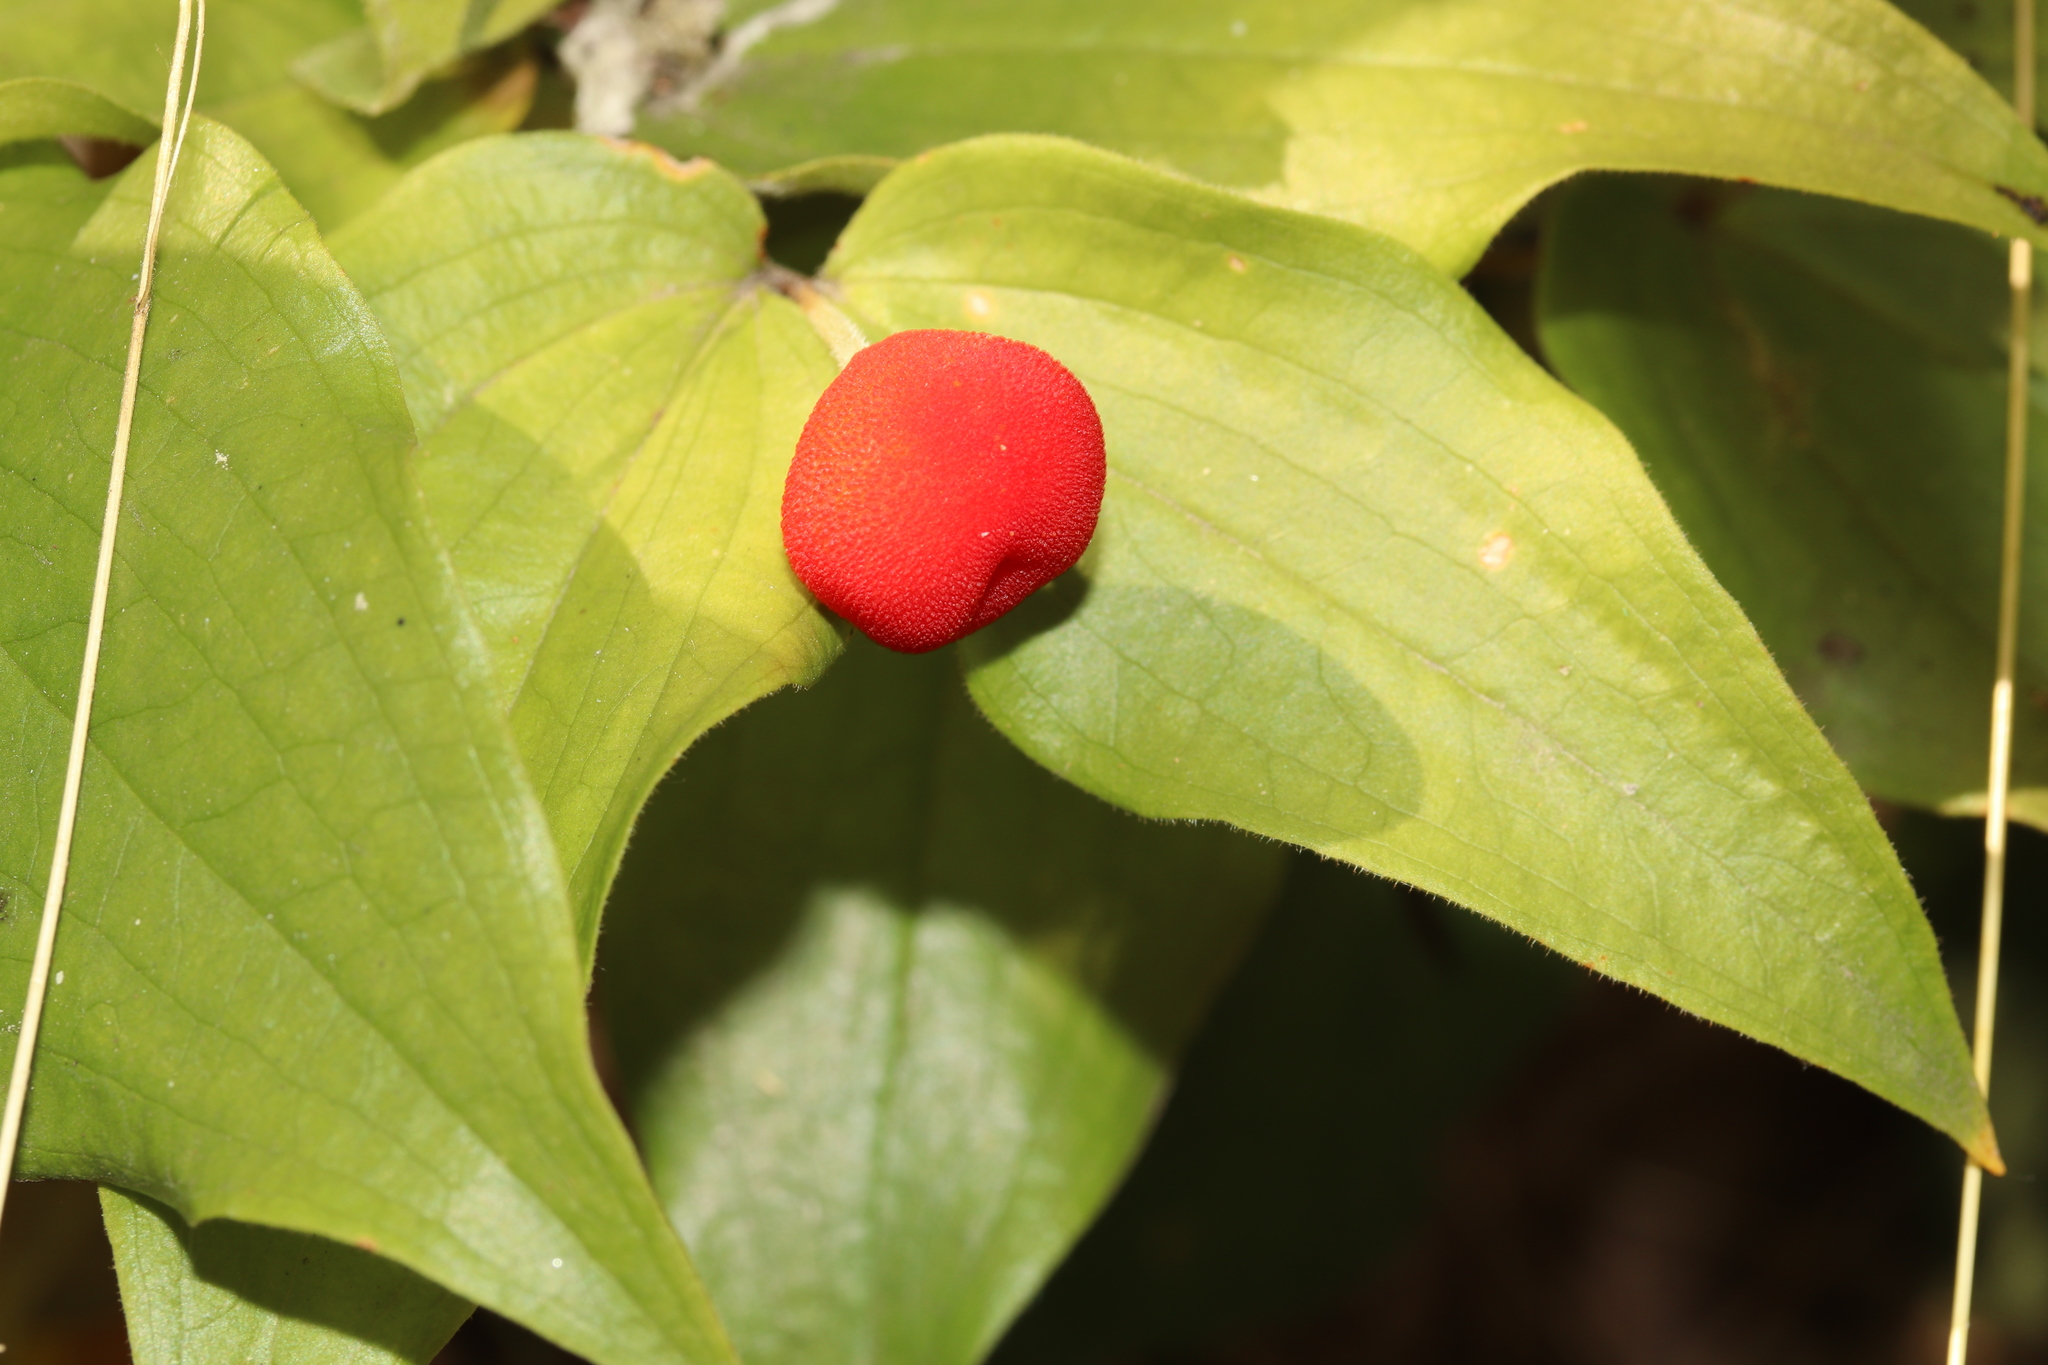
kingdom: Plantae
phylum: Tracheophyta
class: Liliopsida
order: Liliales
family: Liliaceae
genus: Prosartes
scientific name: Prosartes trachycarpa
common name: Rough-fruit fairy-bells
